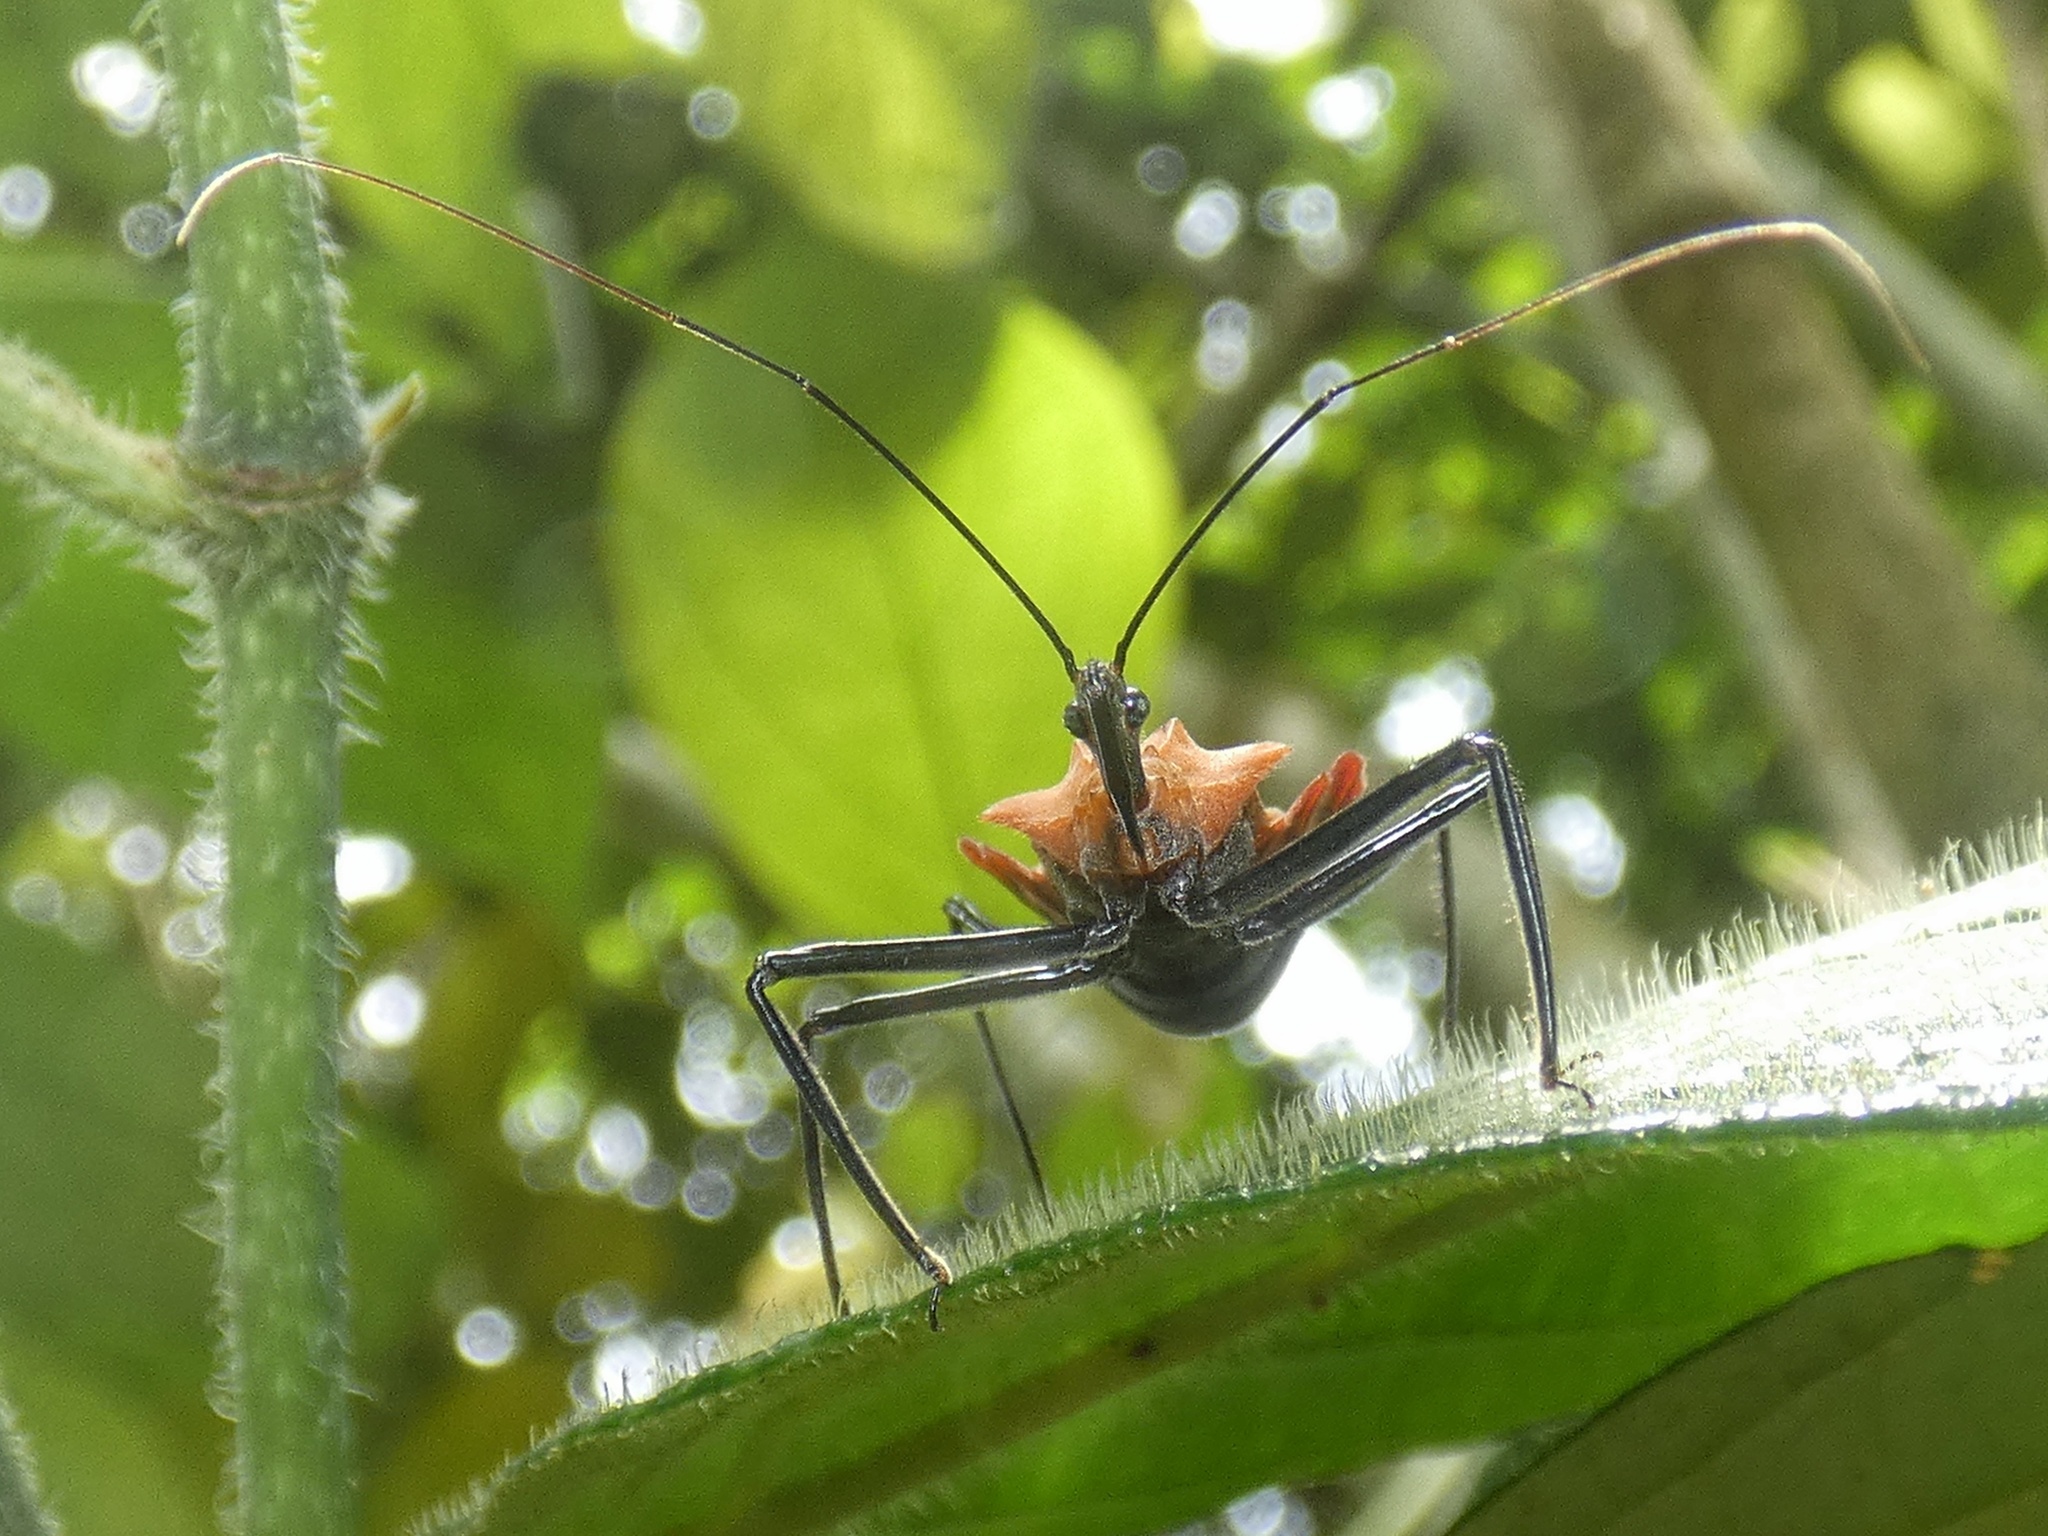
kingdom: Animalia
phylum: Arthropoda
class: Insecta
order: Hemiptera
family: Reduviidae
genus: Montina
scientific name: Montina scutellaris
